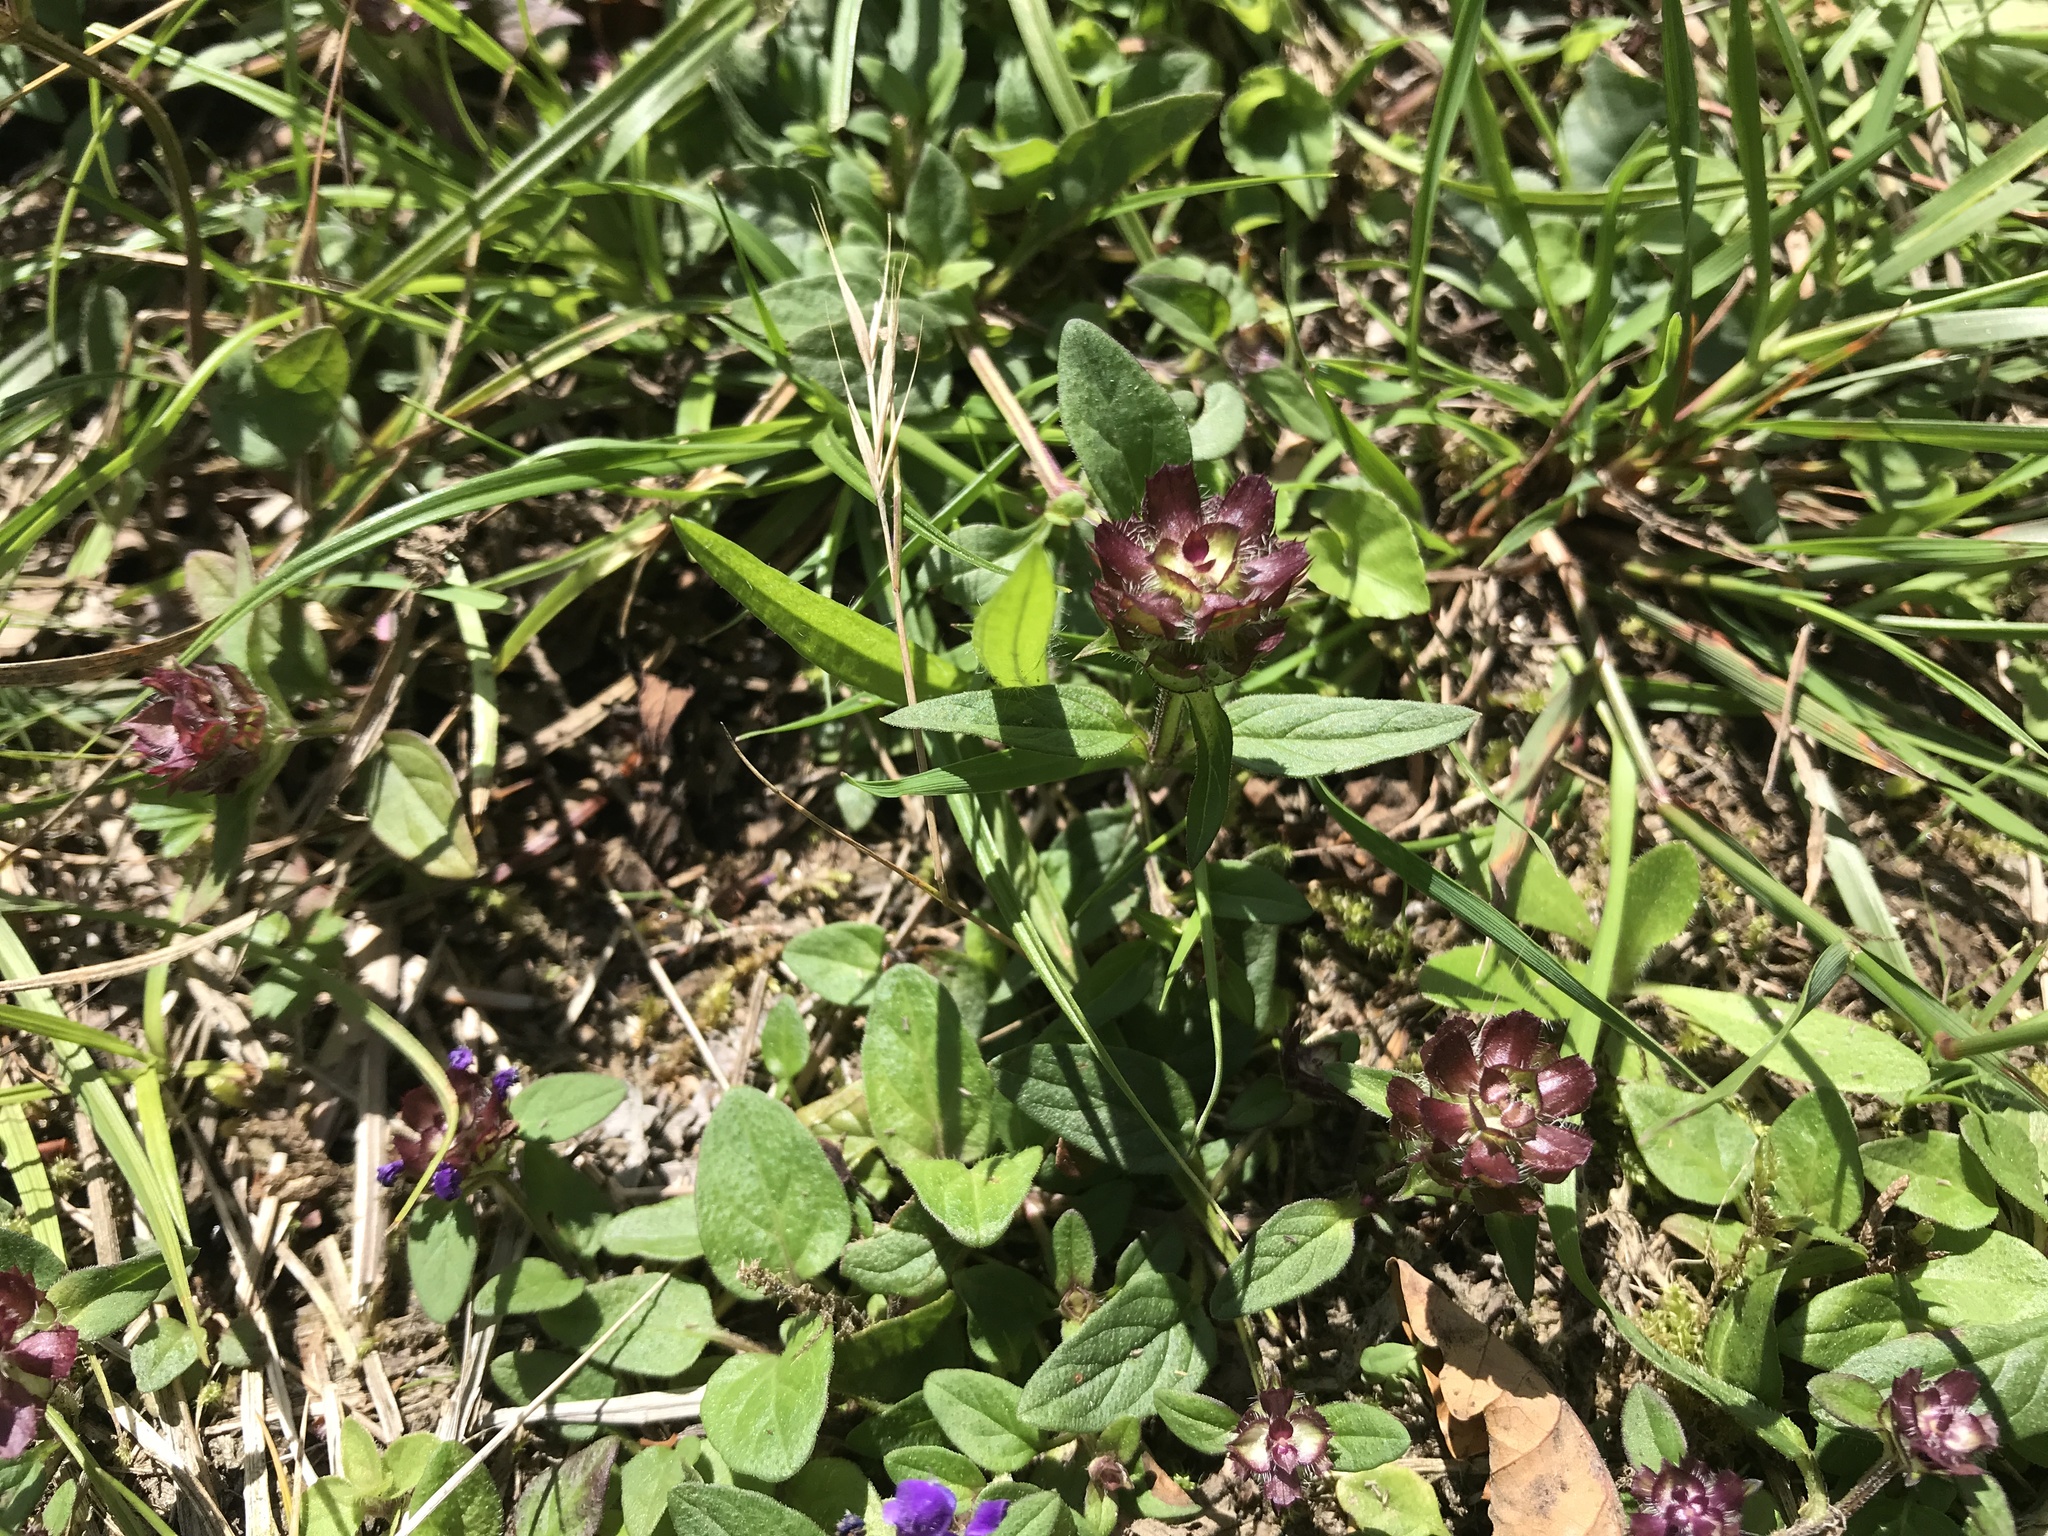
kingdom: Plantae
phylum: Tracheophyta
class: Magnoliopsida
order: Lamiales
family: Lamiaceae
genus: Prunella
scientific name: Prunella vulgaris
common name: Heal-all
